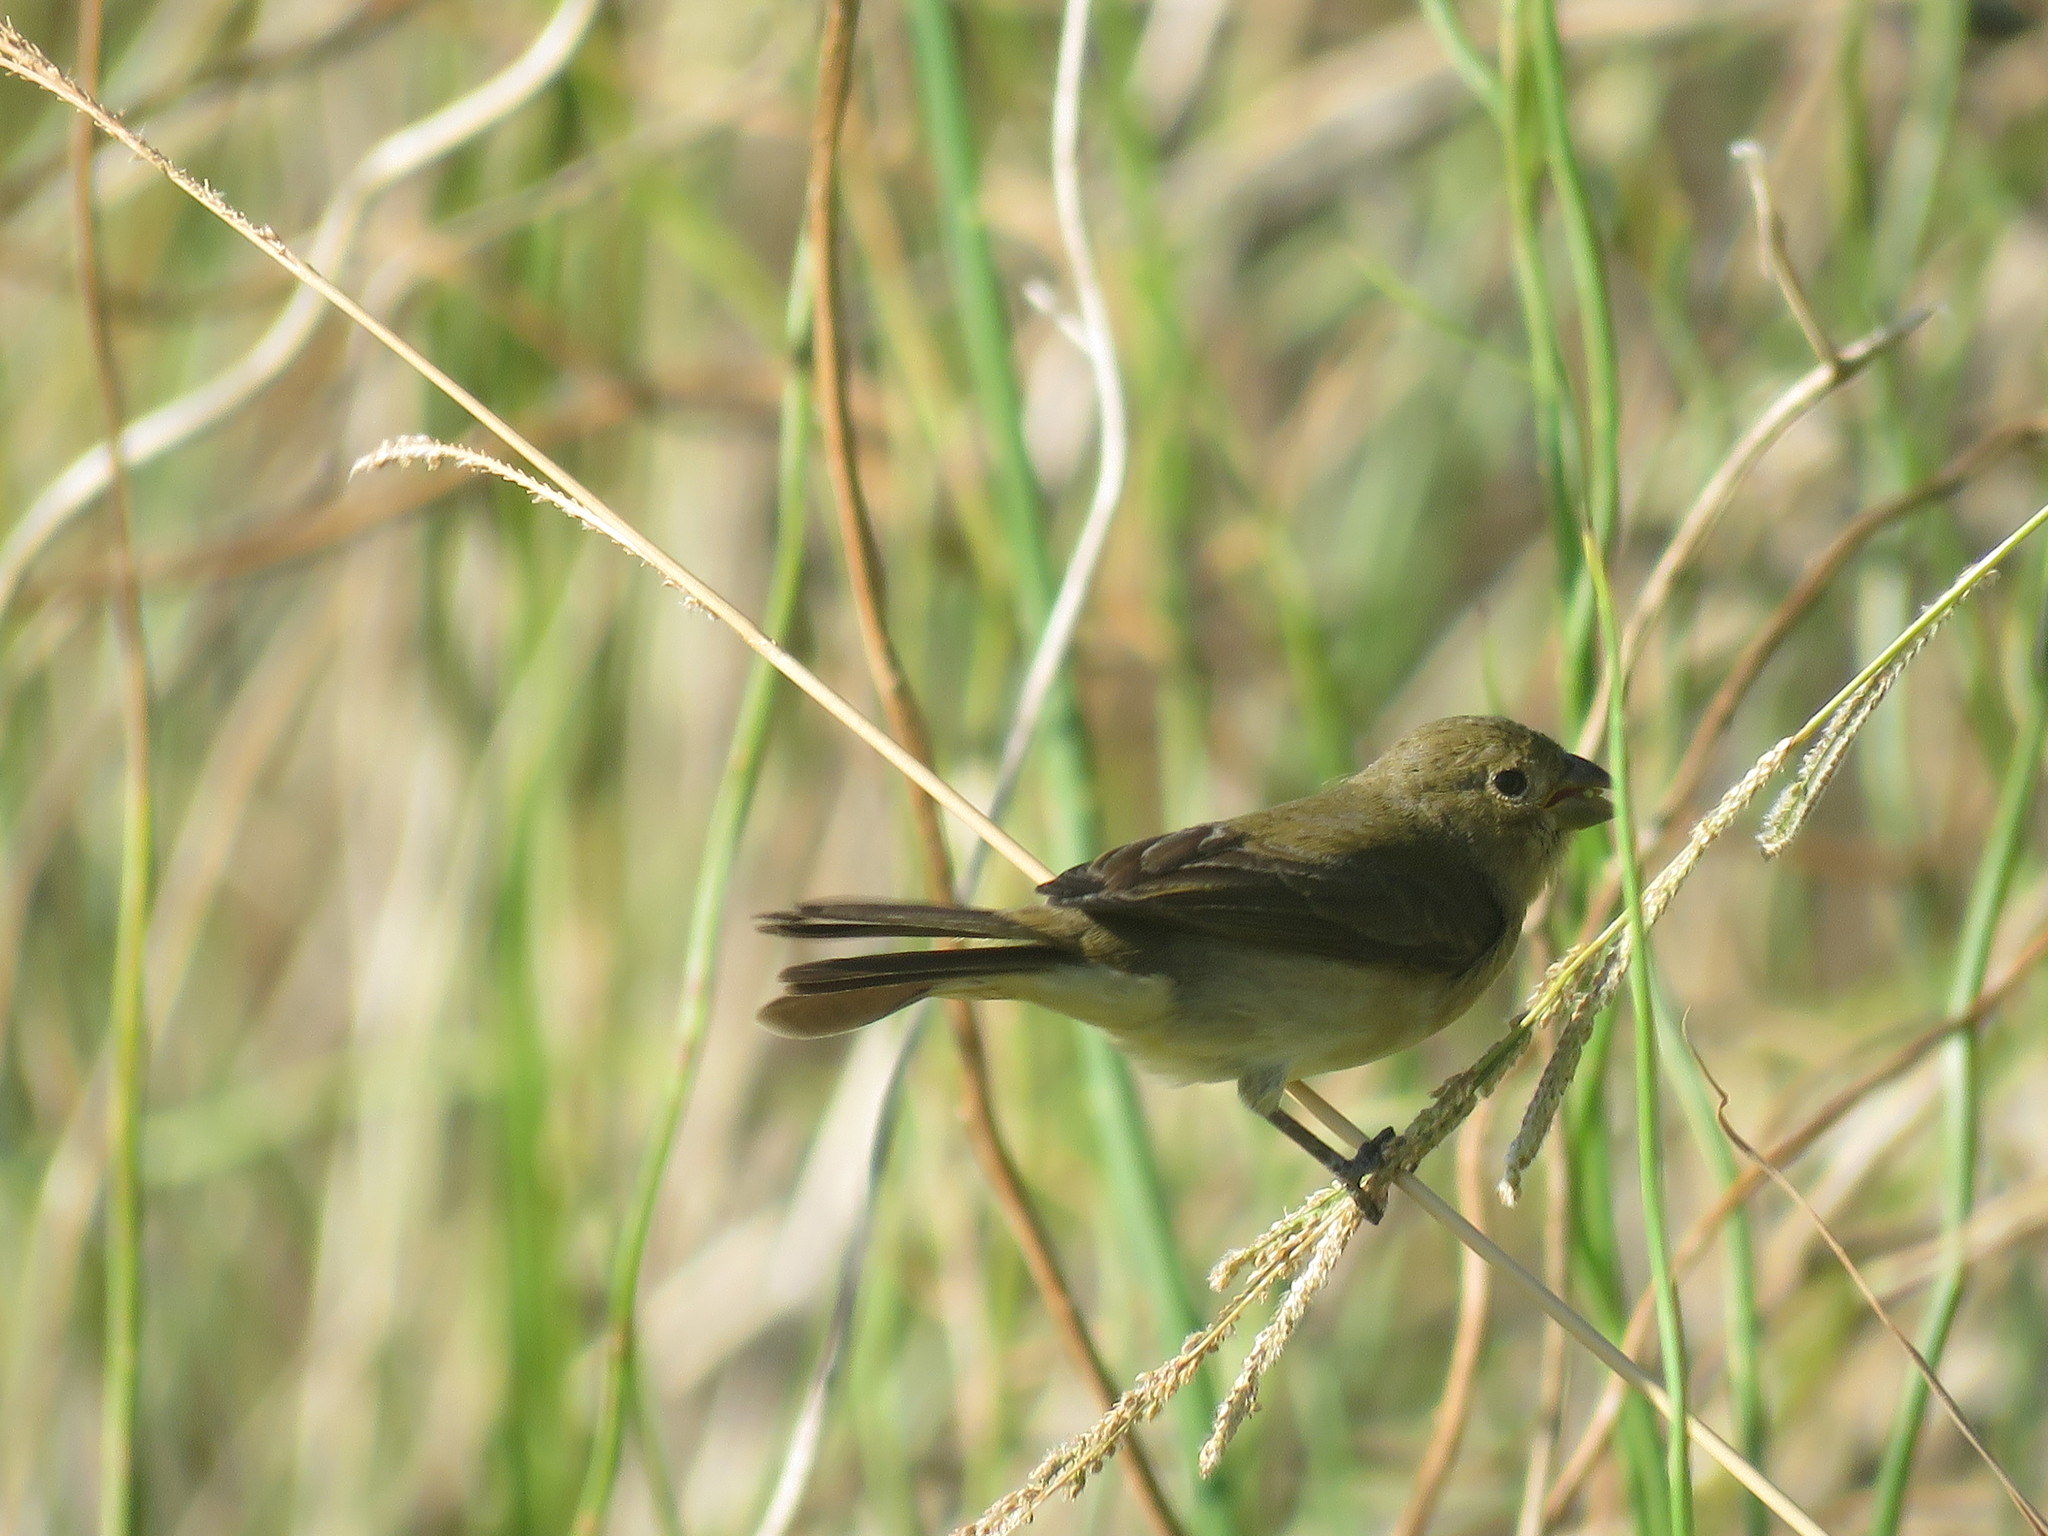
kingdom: Animalia
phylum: Chordata
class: Aves
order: Passeriformes
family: Thraupidae
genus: Sporophila
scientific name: Sporophila caerulescens
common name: Double-collared seedeater
